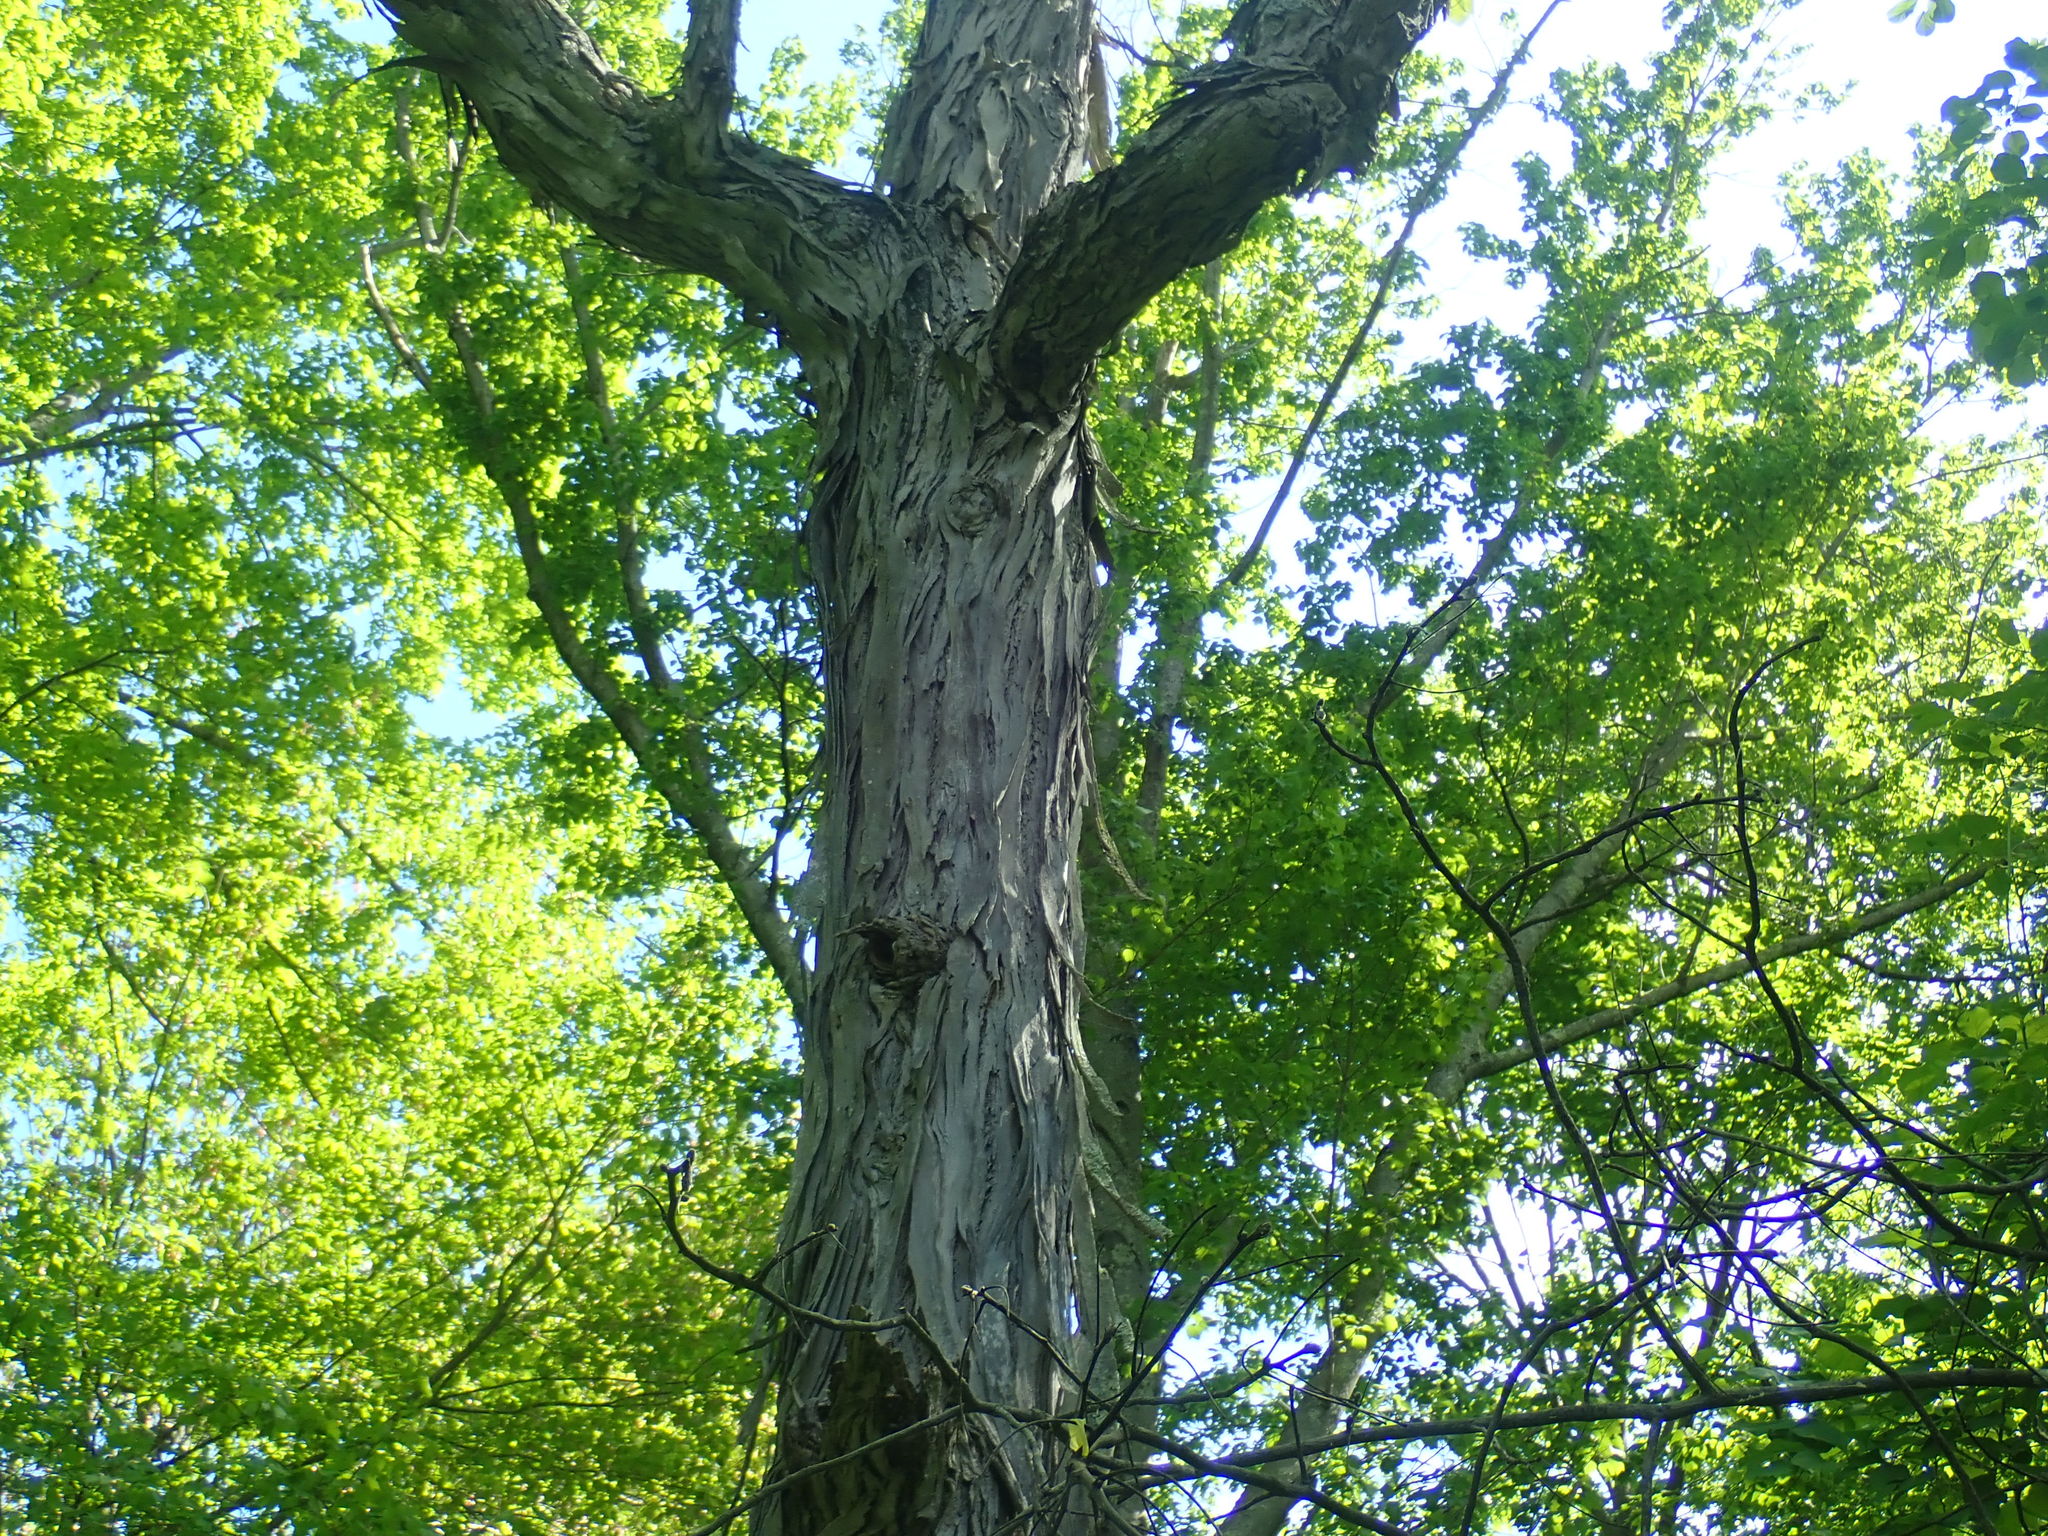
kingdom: Plantae
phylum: Tracheophyta
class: Magnoliopsida
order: Fagales
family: Juglandaceae
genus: Carya
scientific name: Carya ovata
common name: Shagbark hickory
